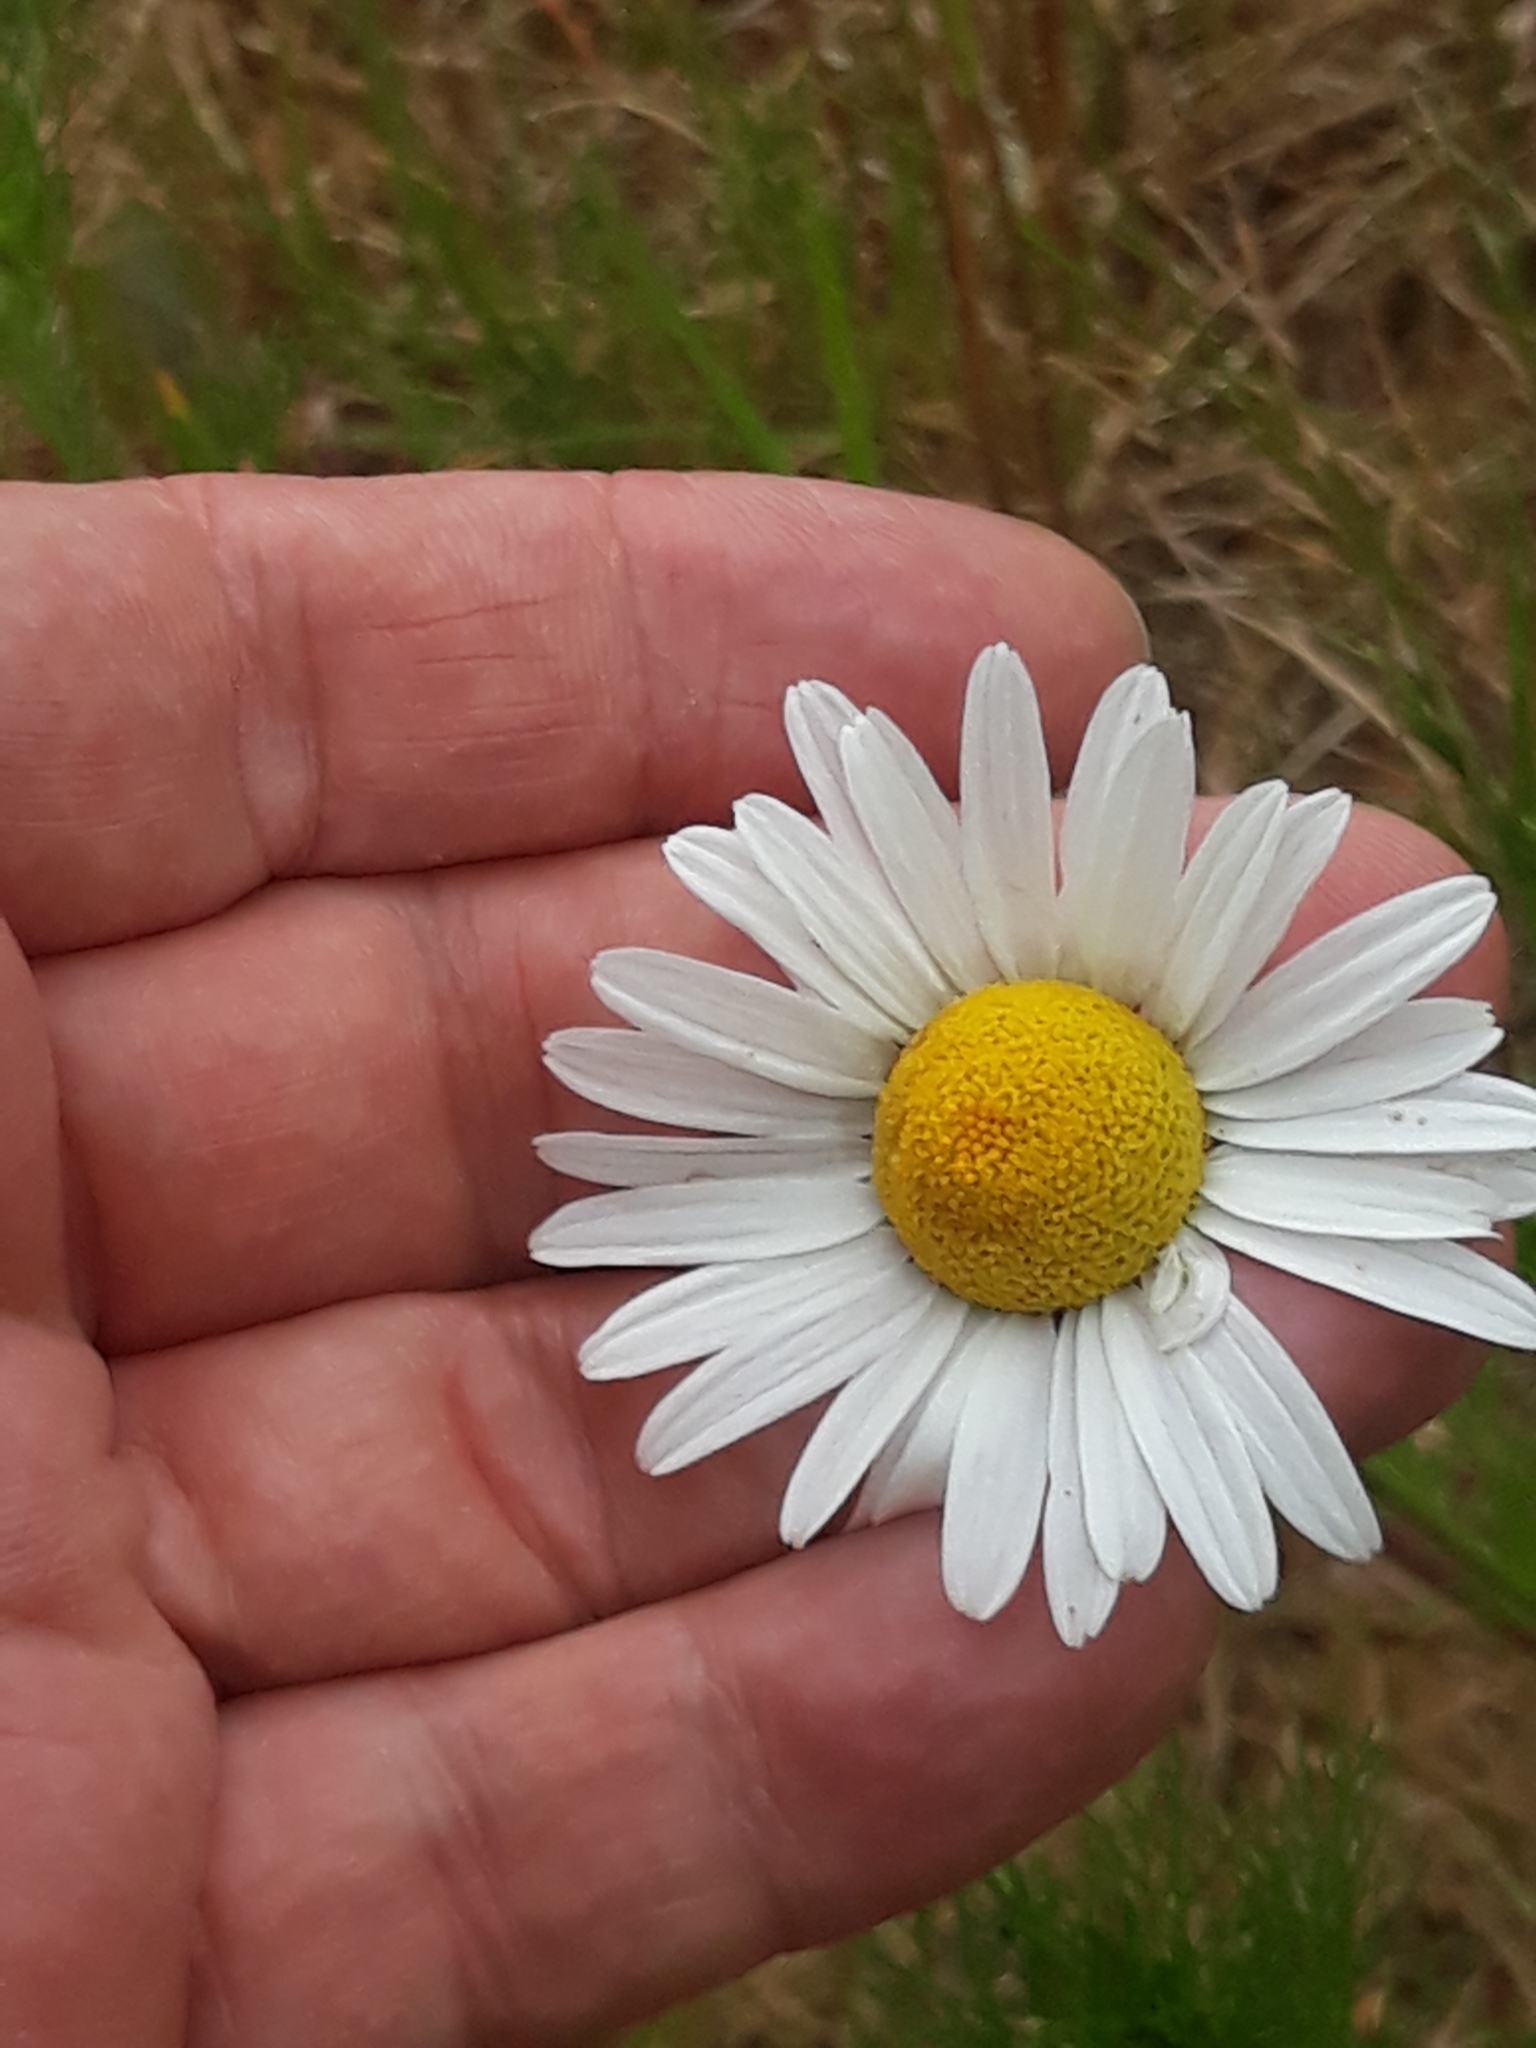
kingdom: Plantae
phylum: Tracheophyta
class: Magnoliopsida
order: Asterales
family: Asteraceae
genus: Tripleurospermum
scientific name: Tripleurospermum inodorum
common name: Scentless mayweed
